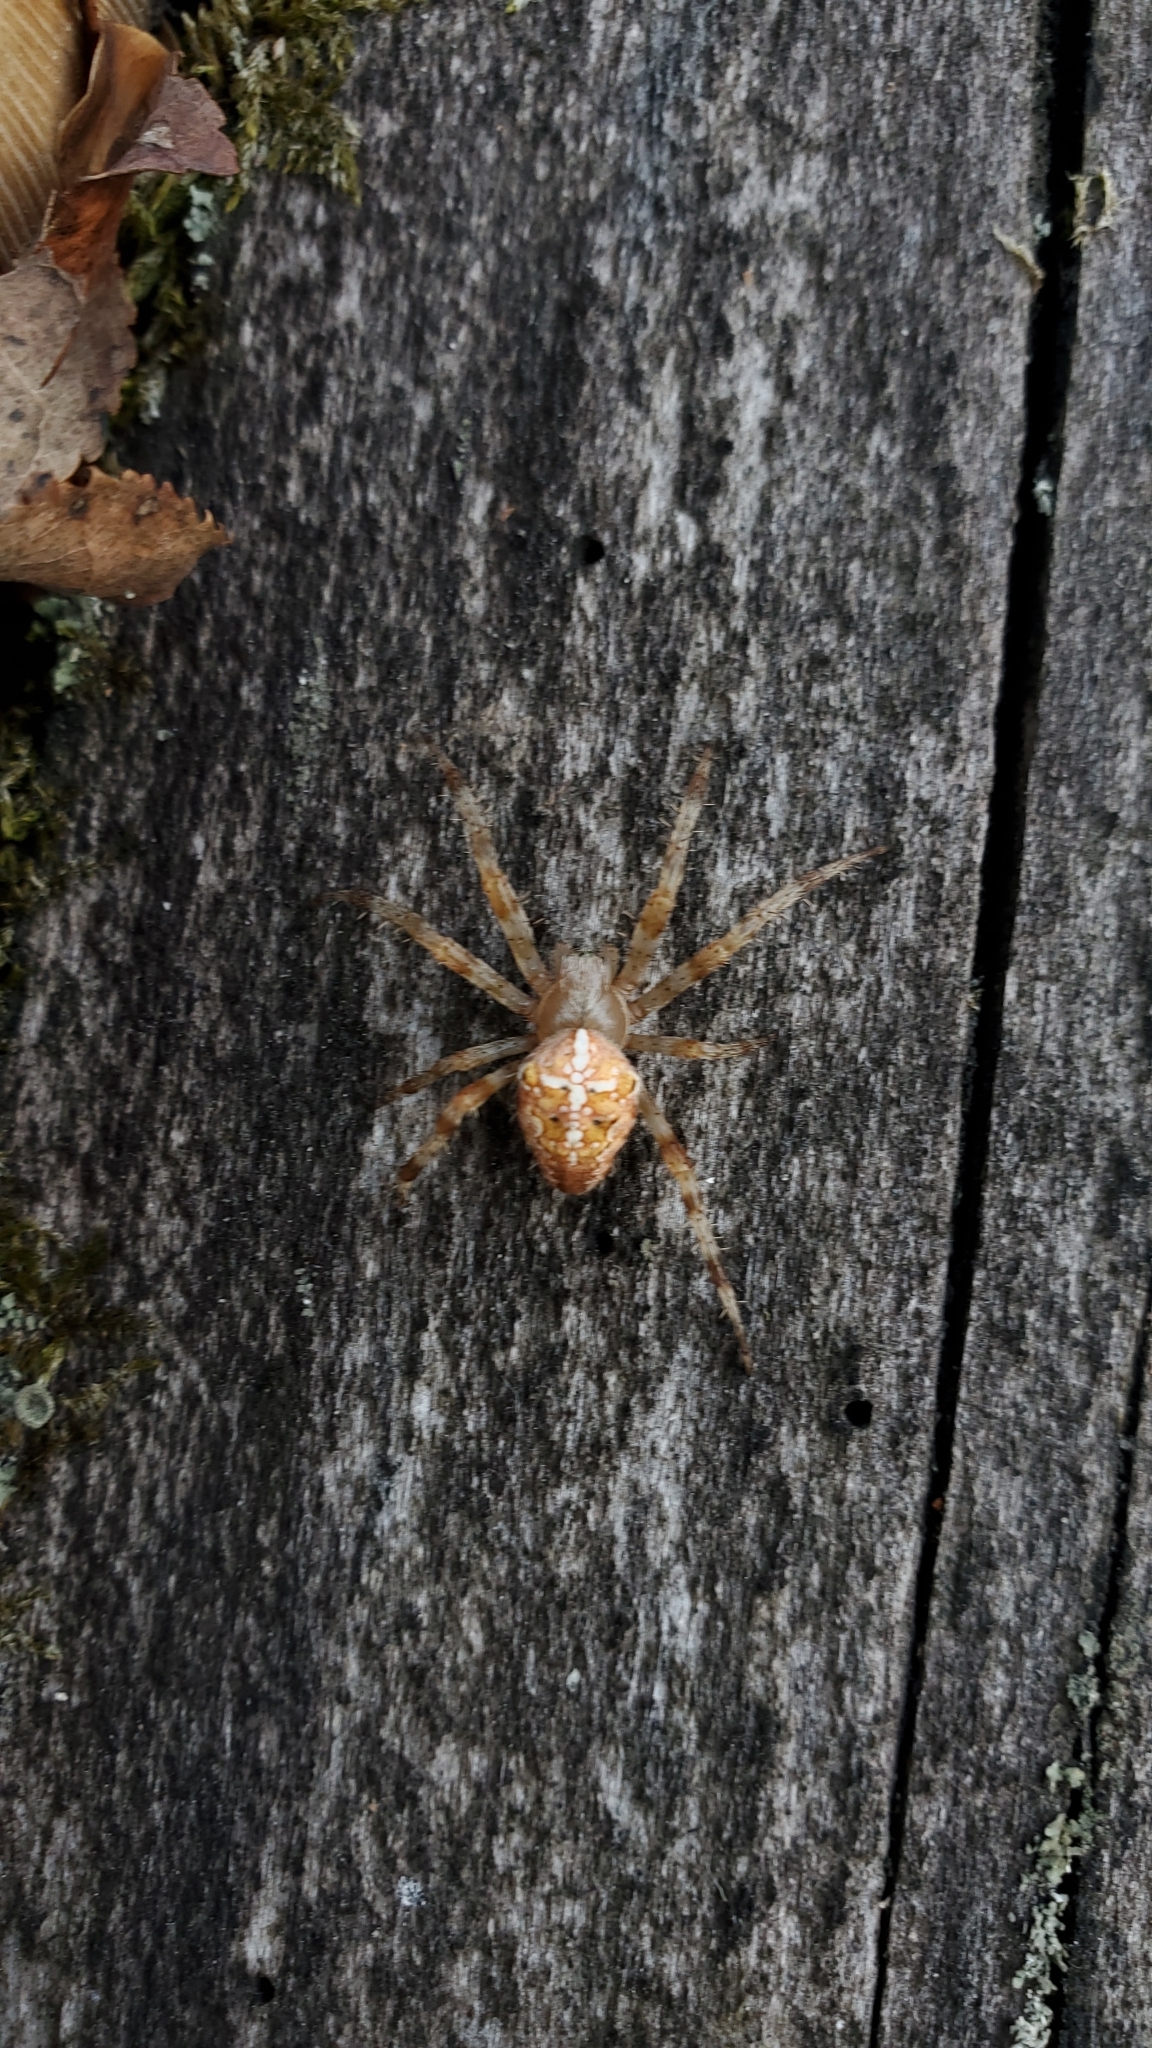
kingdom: Animalia
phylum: Arthropoda
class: Arachnida
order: Araneae
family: Araneidae
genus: Araneus
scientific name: Araneus diadematus
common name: Cross orbweaver
